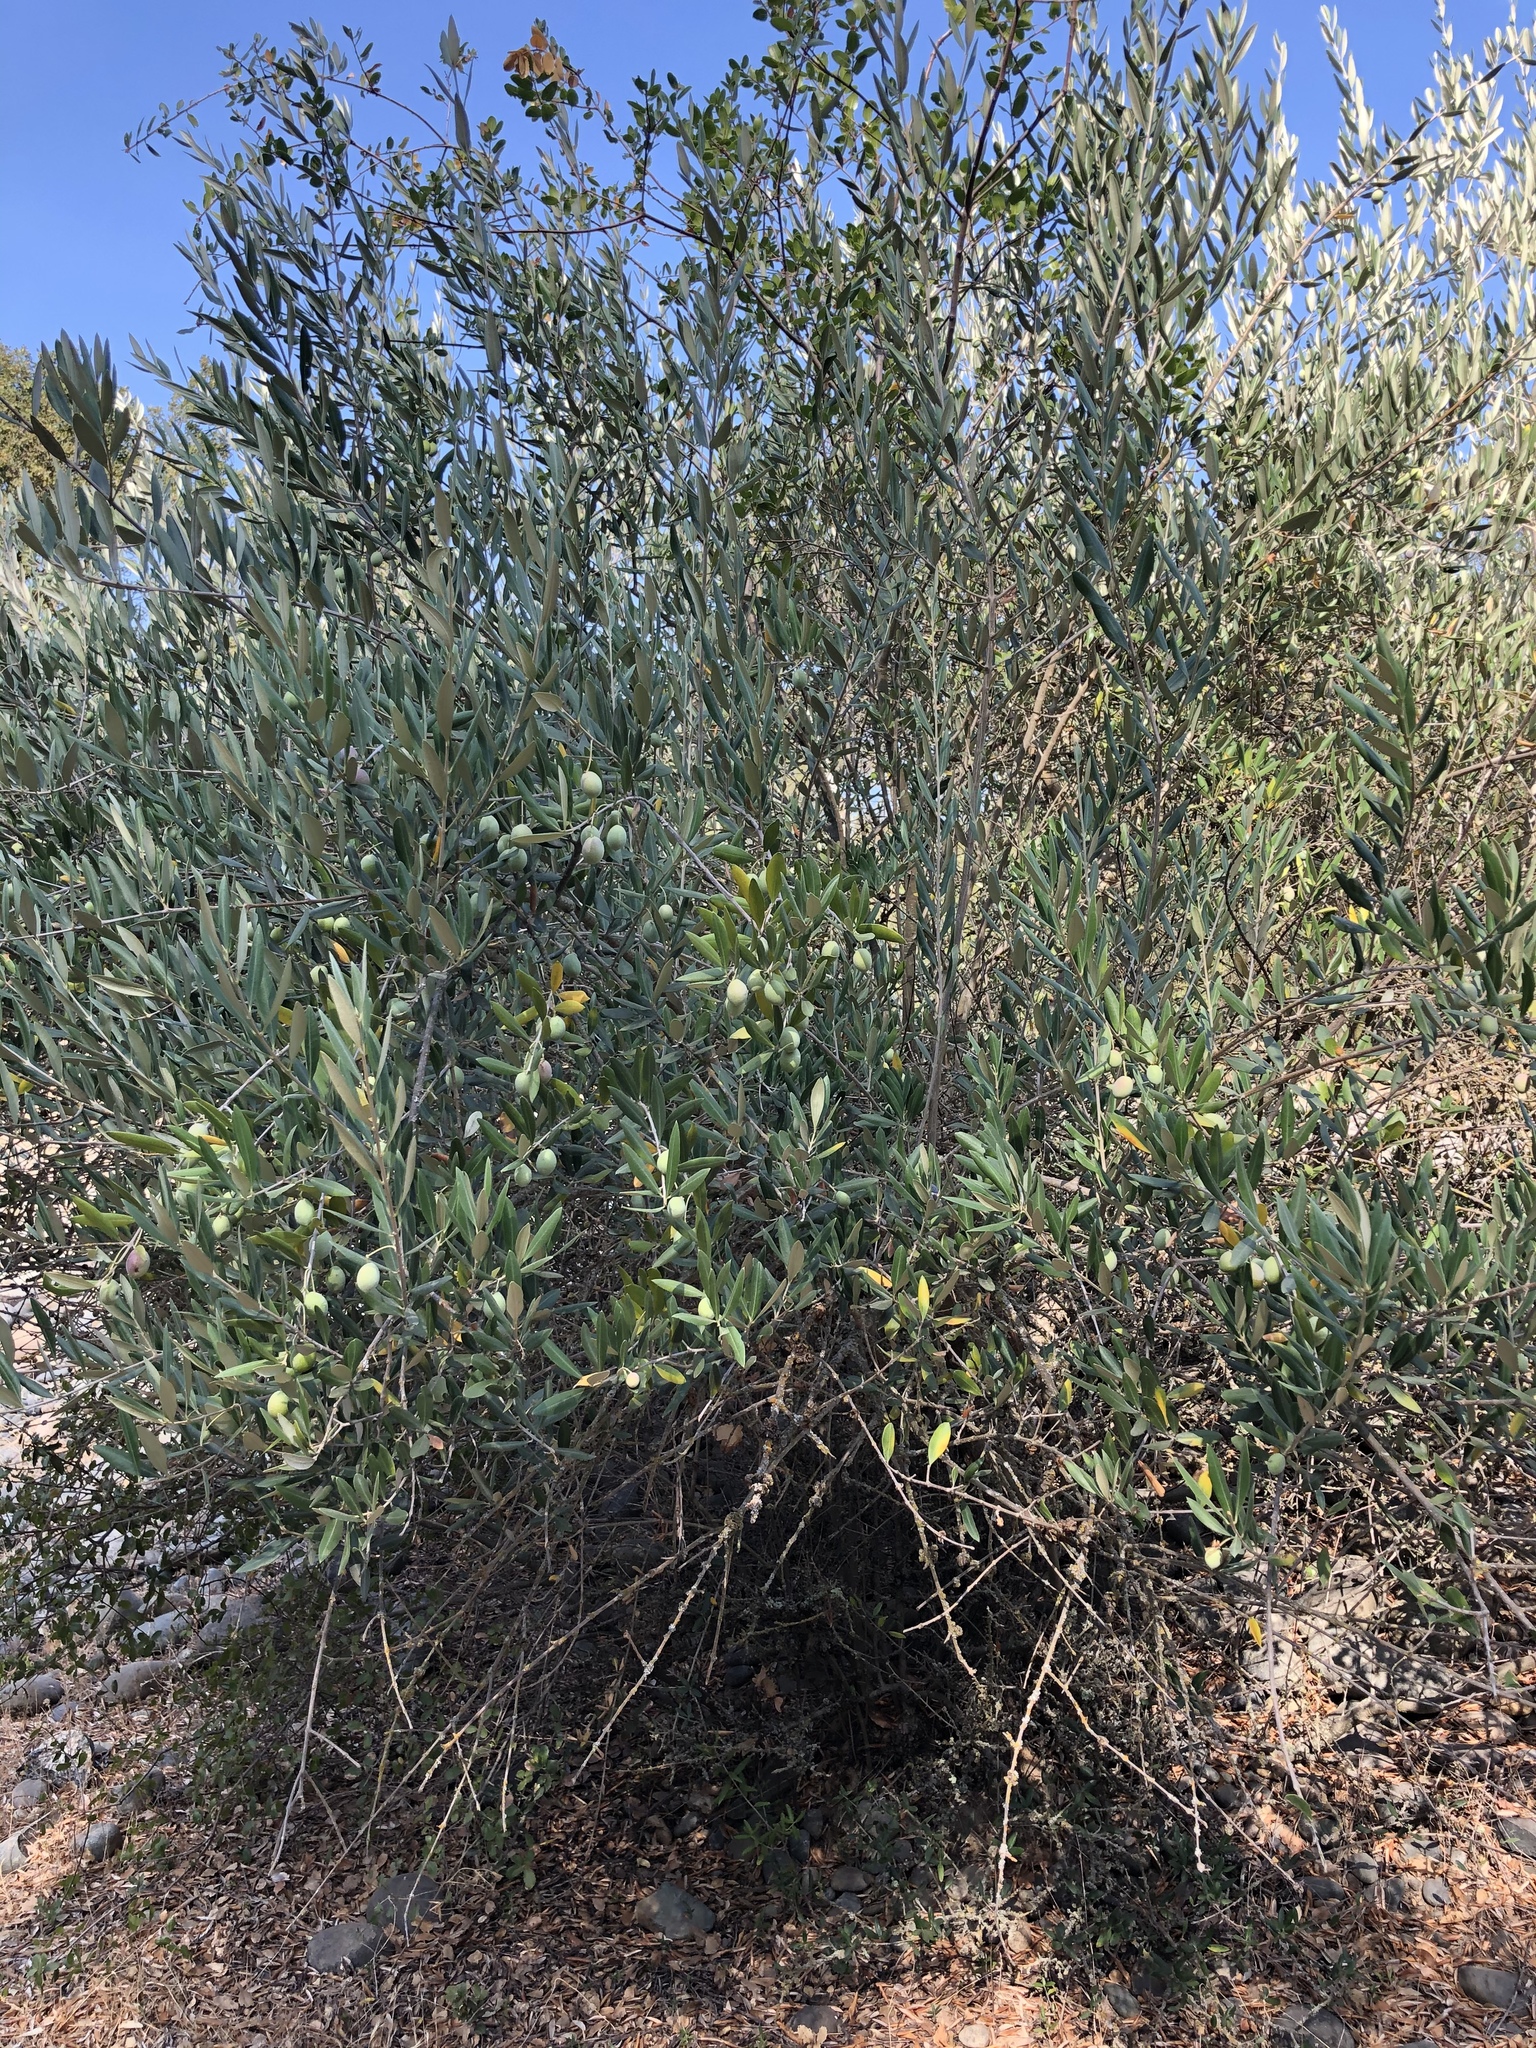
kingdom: Plantae
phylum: Tracheophyta
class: Magnoliopsida
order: Lamiales
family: Oleaceae
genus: Olea
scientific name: Olea europaea
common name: Olive
